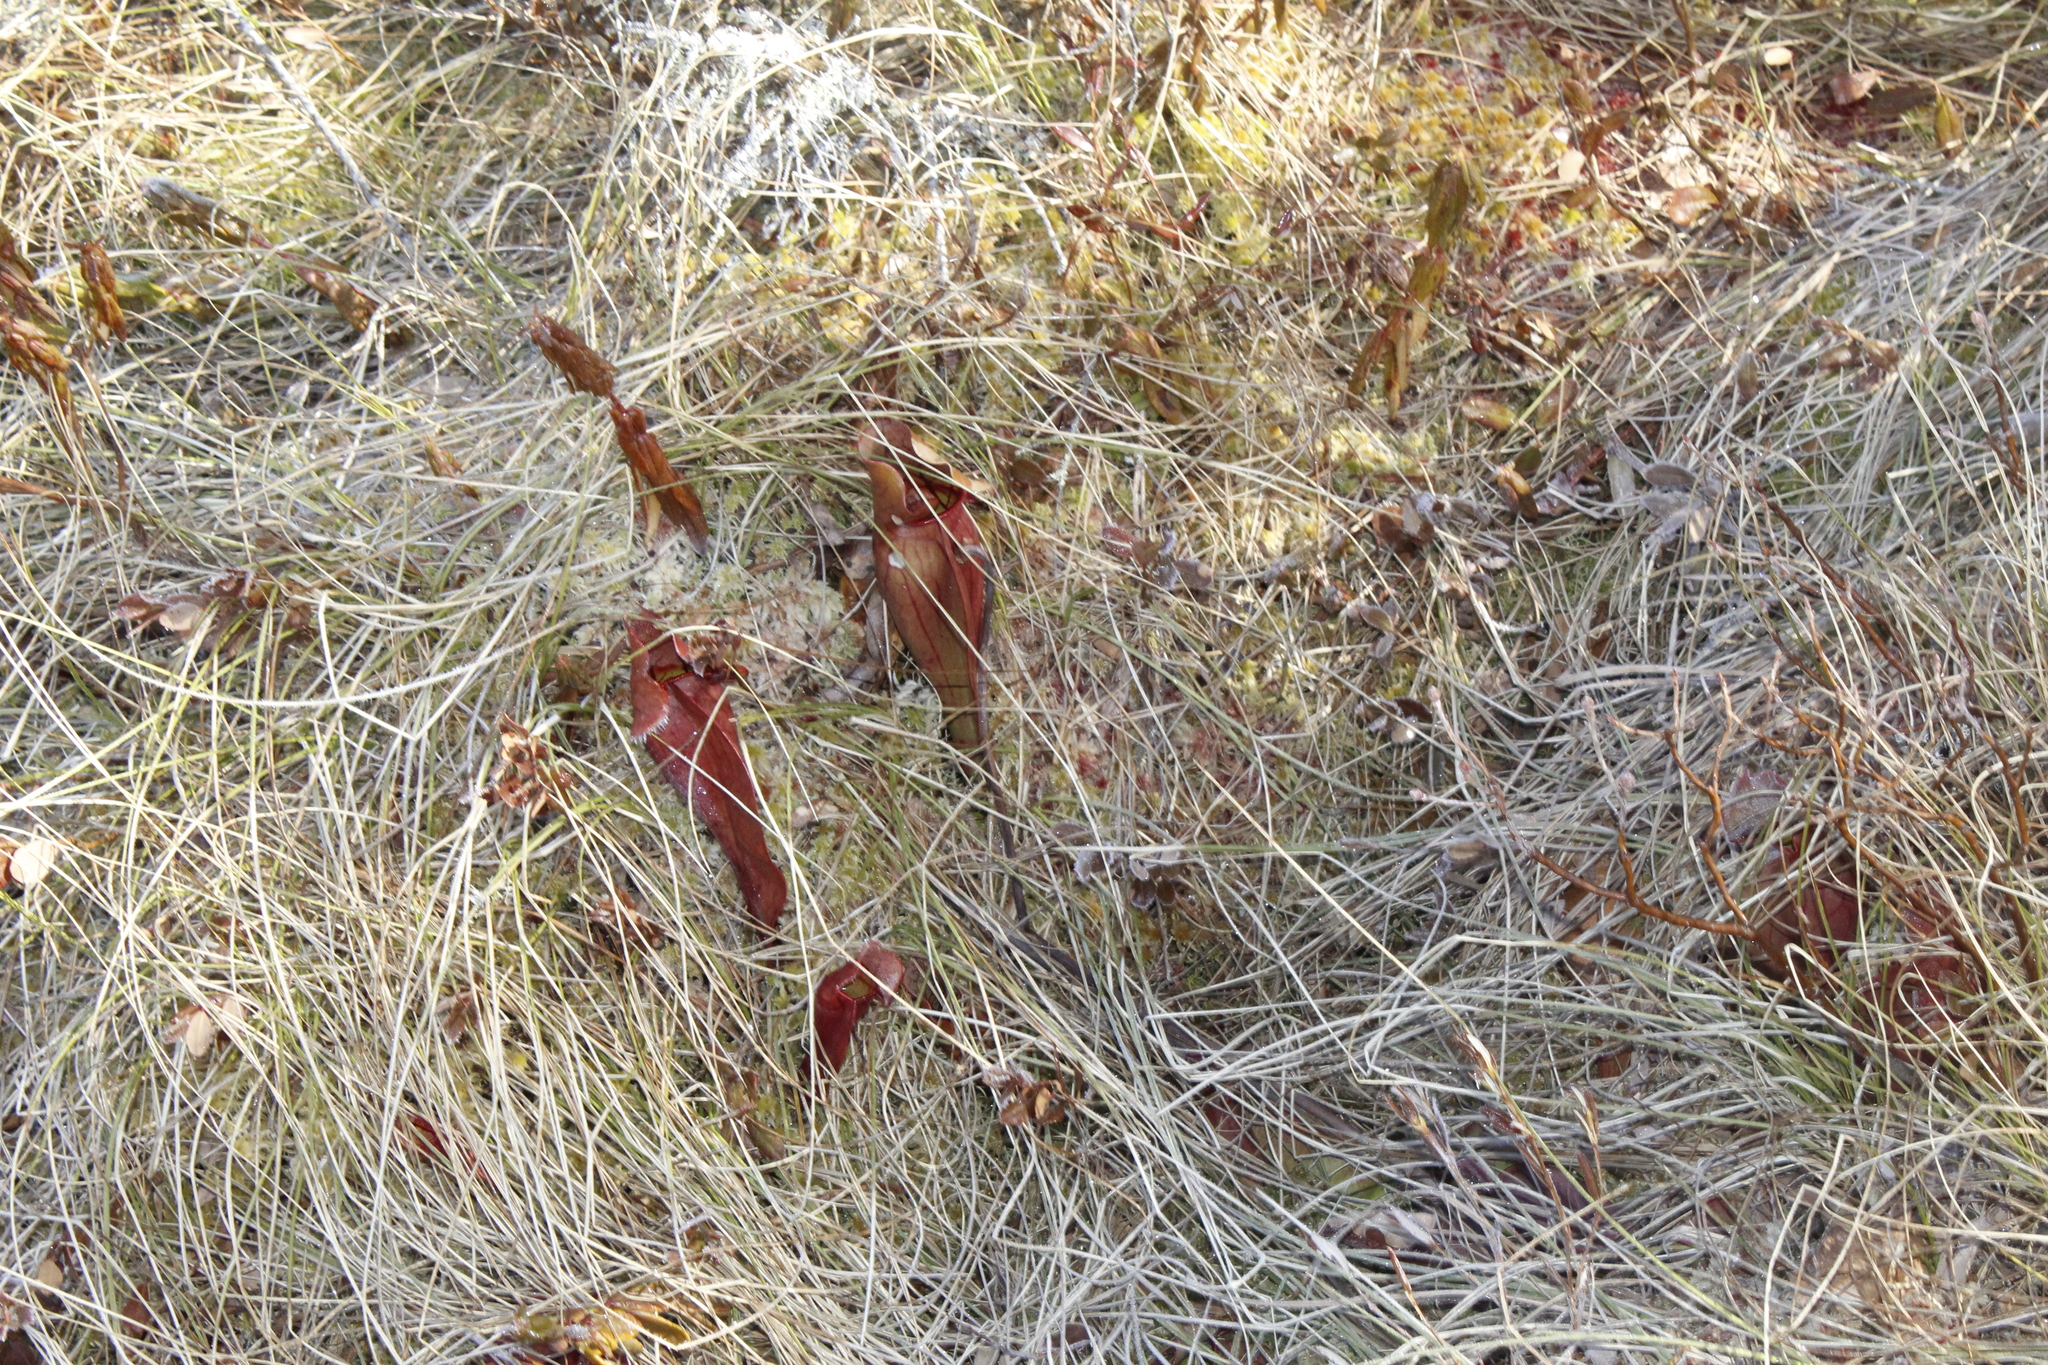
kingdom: Plantae
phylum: Tracheophyta
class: Magnoliopsida
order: Ericales
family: Sarraceniaceae
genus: Sarracenia
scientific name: Sarracenia purpurea
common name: Pitcherplant
